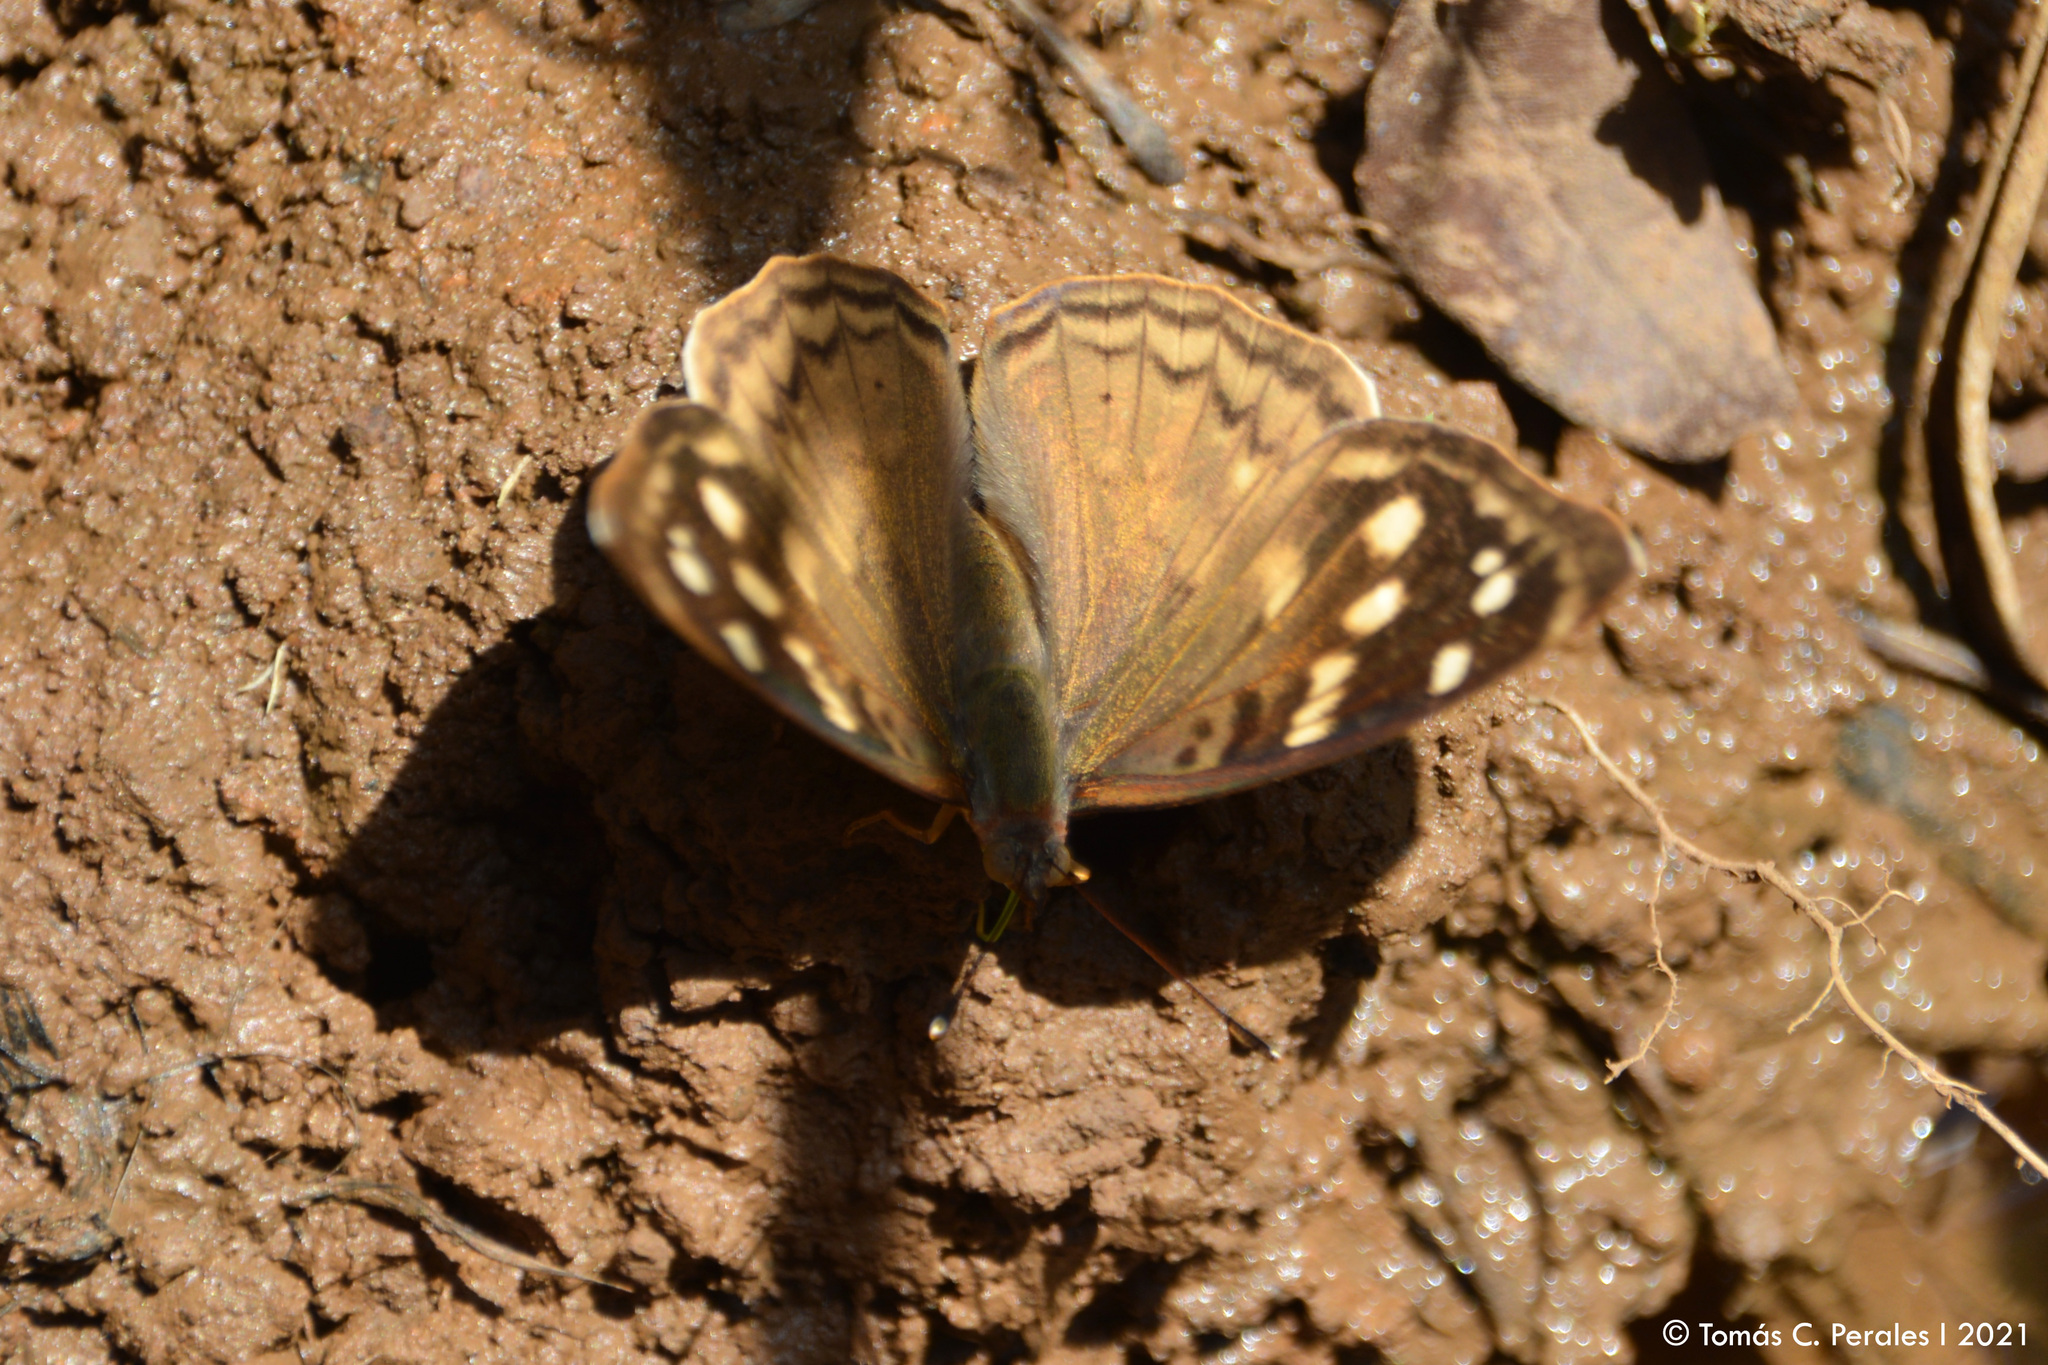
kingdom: Animalia
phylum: Arthropoda
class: Insecta
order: Lepidoptera
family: Nymphalidae
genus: Doxocopa
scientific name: Doxocopa kallina
